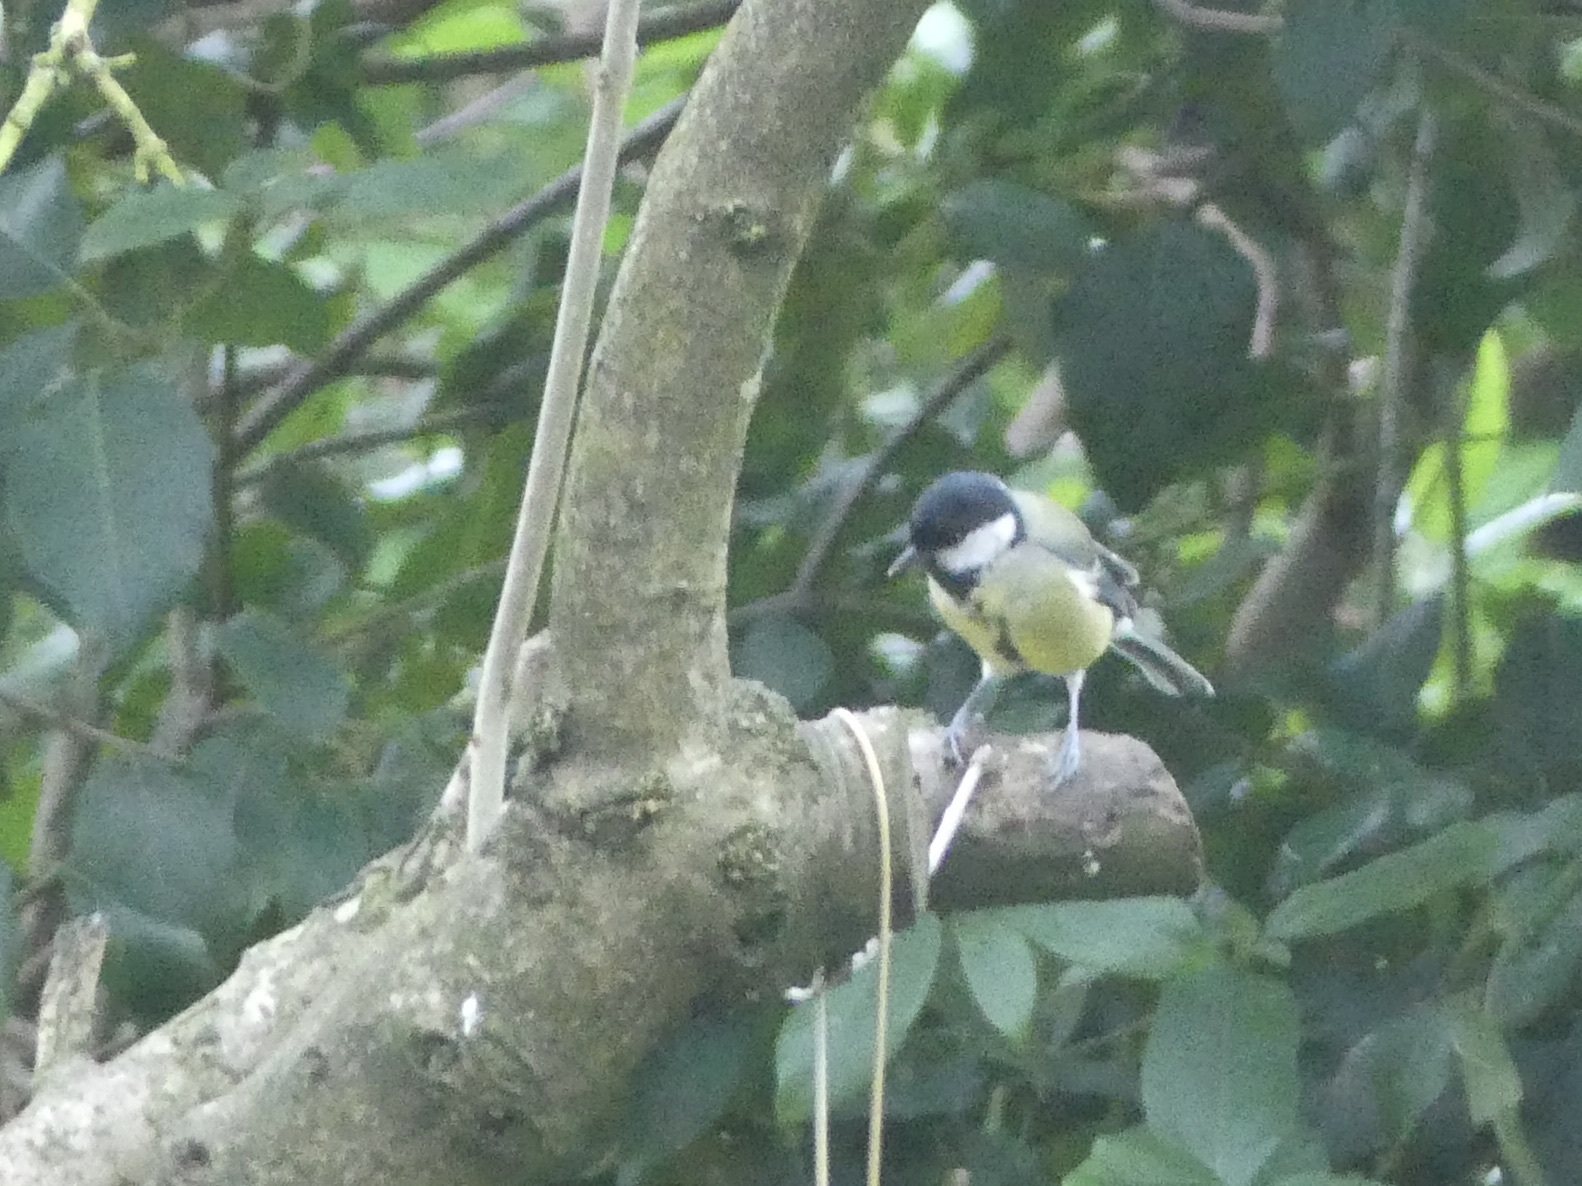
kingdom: Animalia
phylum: Chordata
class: Aves
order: Passeriformes
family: Paridae
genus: Parus
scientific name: Parus major
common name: Great tit
